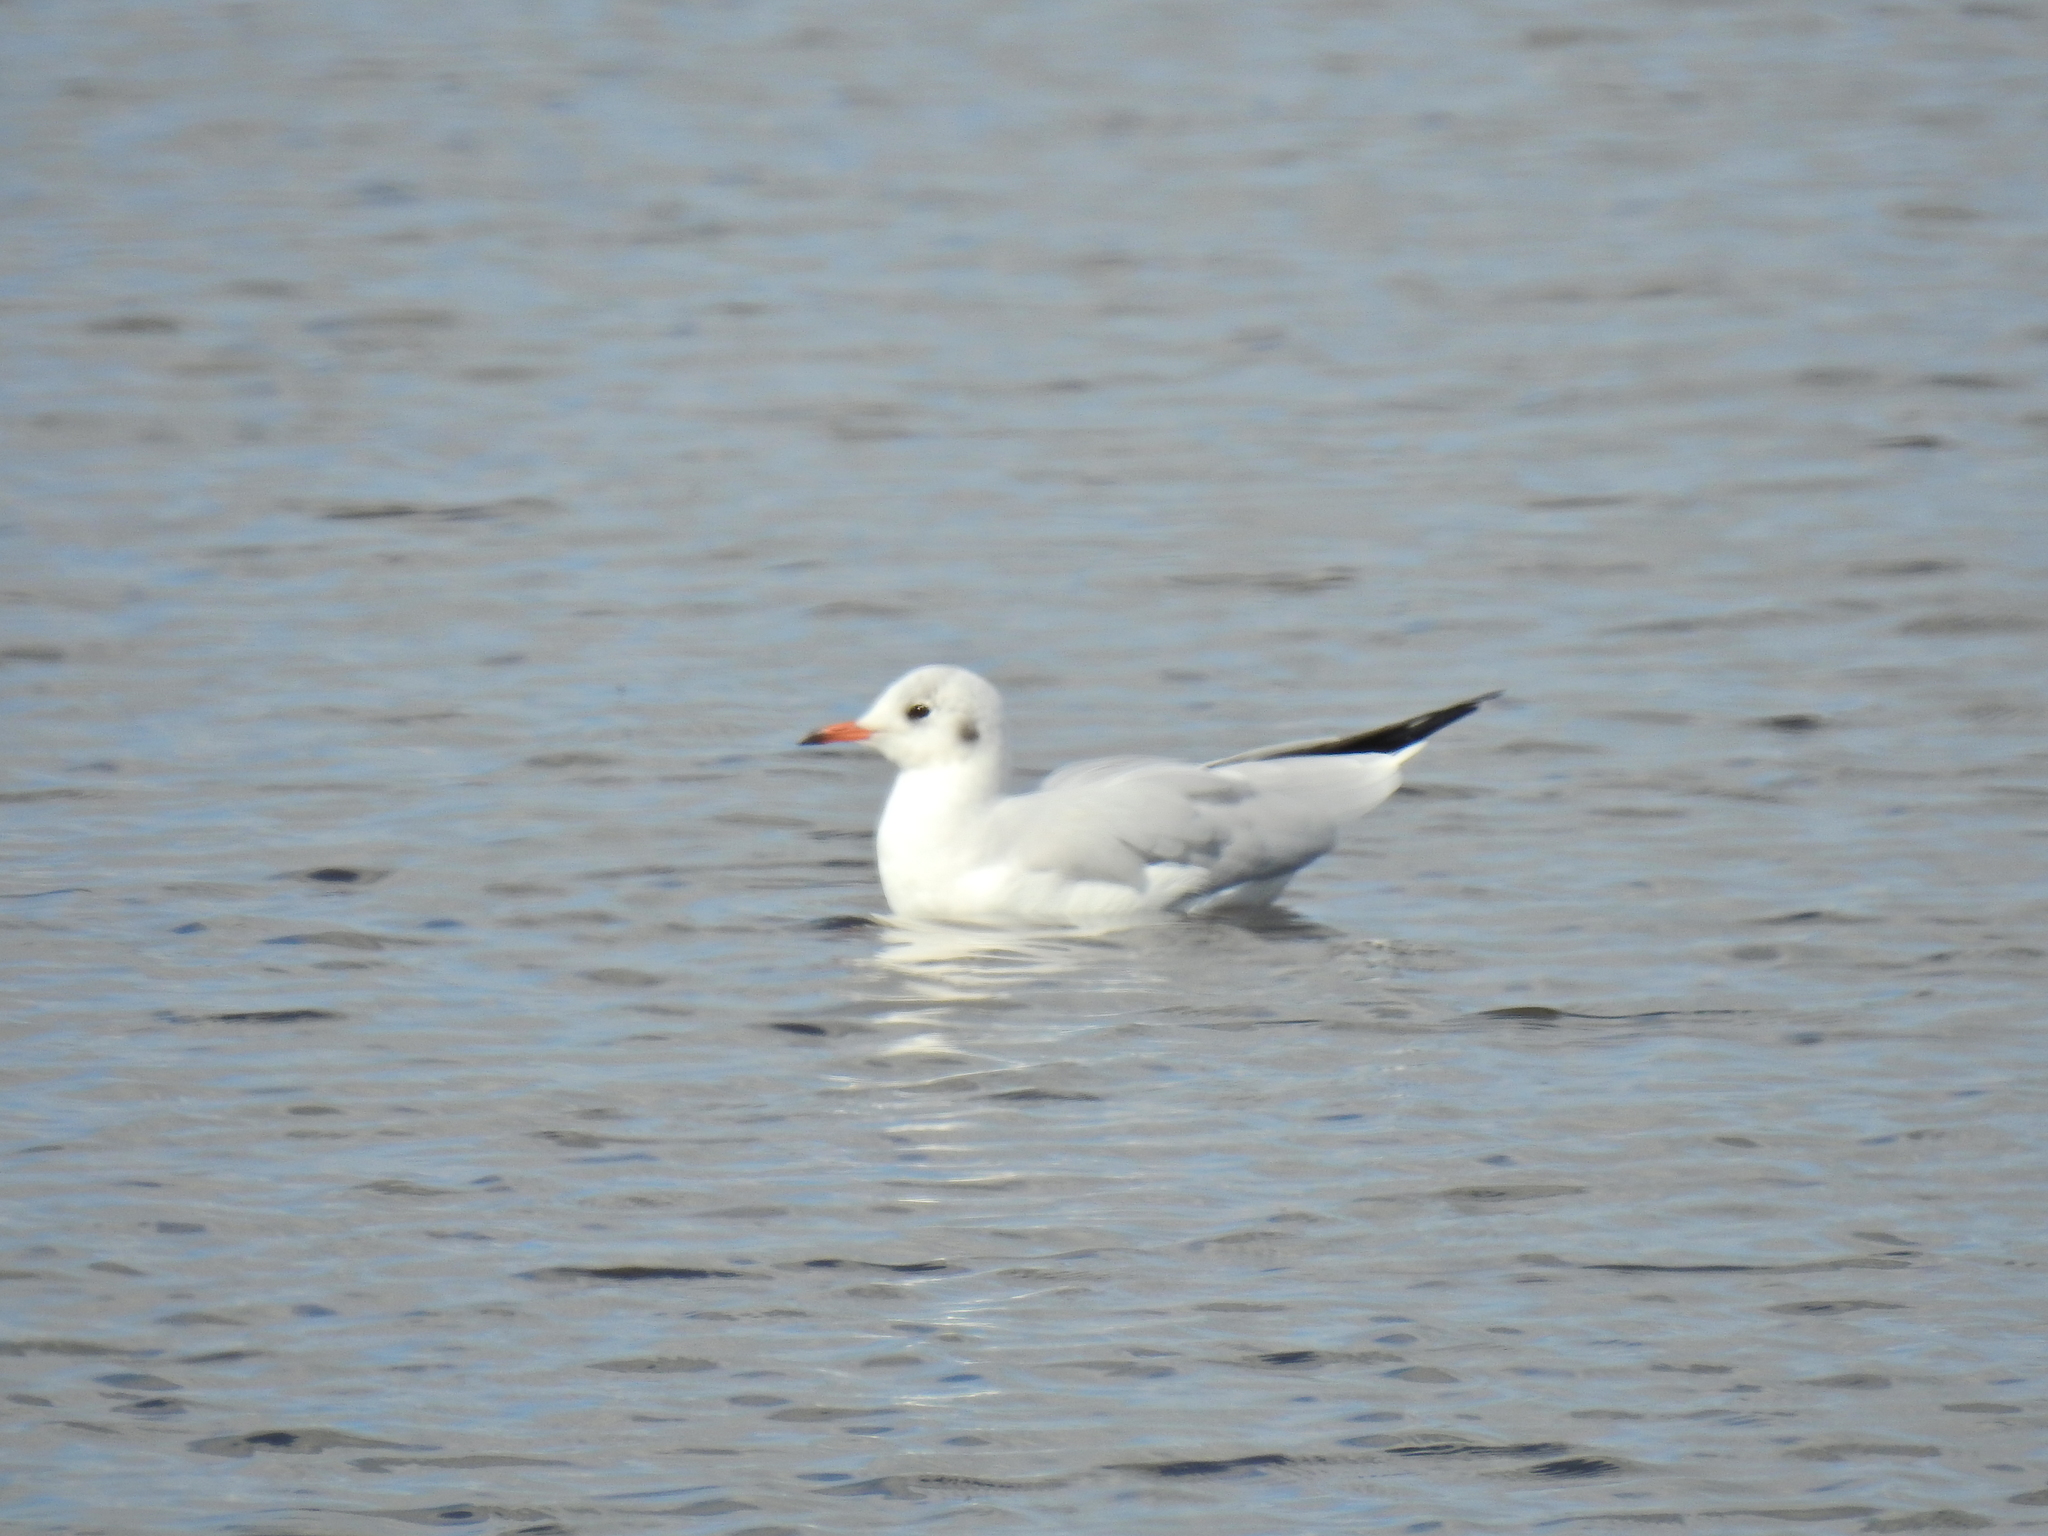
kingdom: Animalia
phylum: Chordata
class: Aves
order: Charadriiformes
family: Laridae
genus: Chroicocephalus
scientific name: Chroicocephalus ridibundus
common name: Black-headed gull
